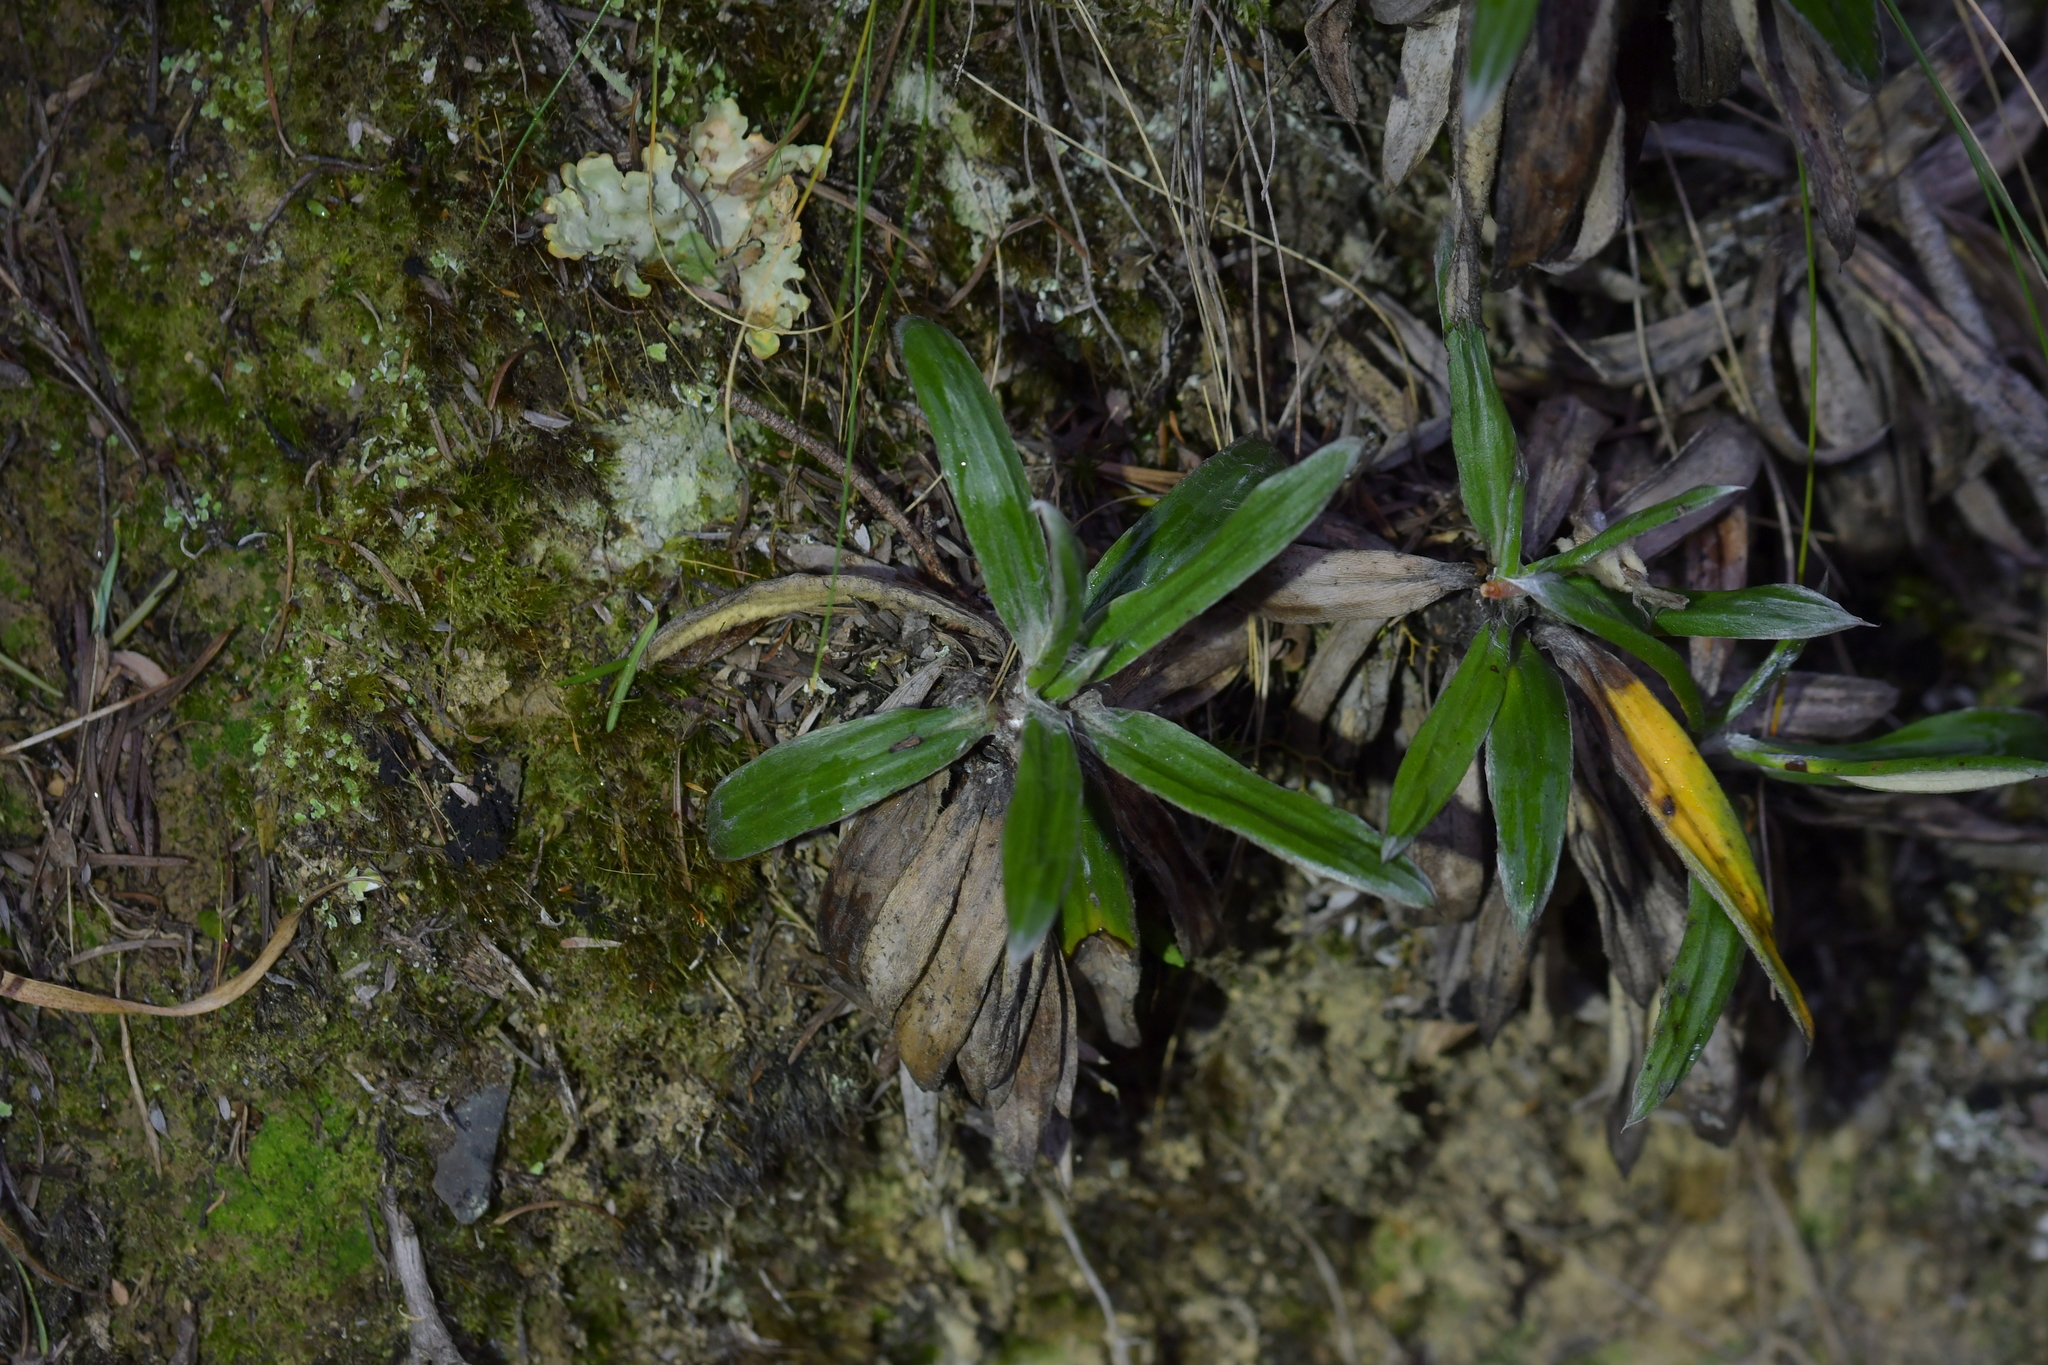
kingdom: Plantae
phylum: Tracheophyta
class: Magnoliopsida
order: Asterales
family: Asteraceae
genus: Celmisia
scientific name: Celmisia spectabilis
